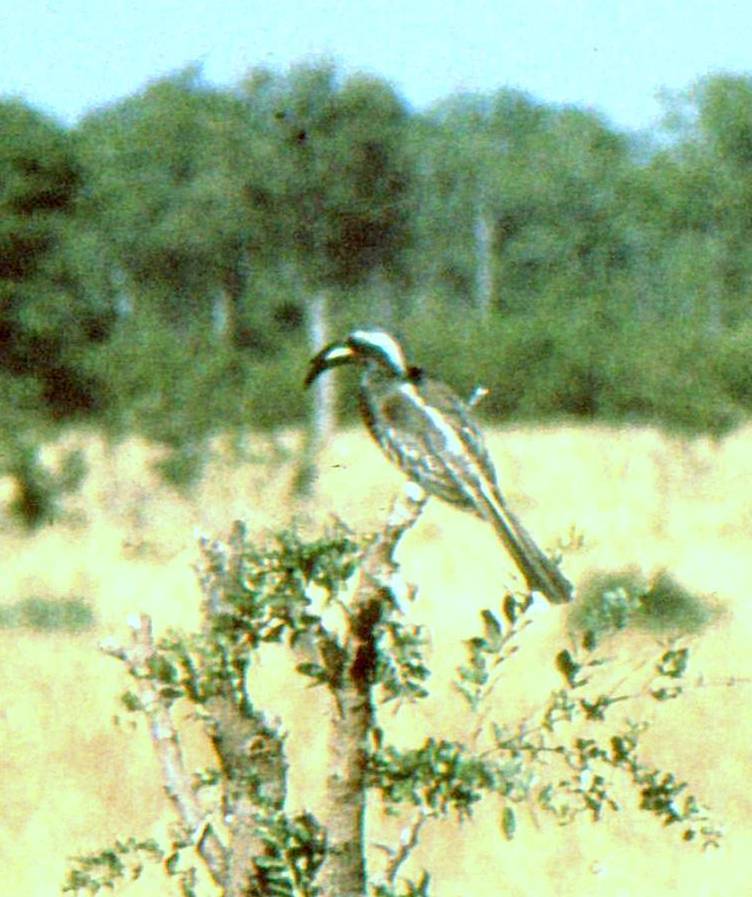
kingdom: Animalia
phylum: Chordata
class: Aves
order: Bucerotiformes
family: Bucerotidae
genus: Lophoceros
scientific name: Lophoceros nasutus
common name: African grey hornbill
